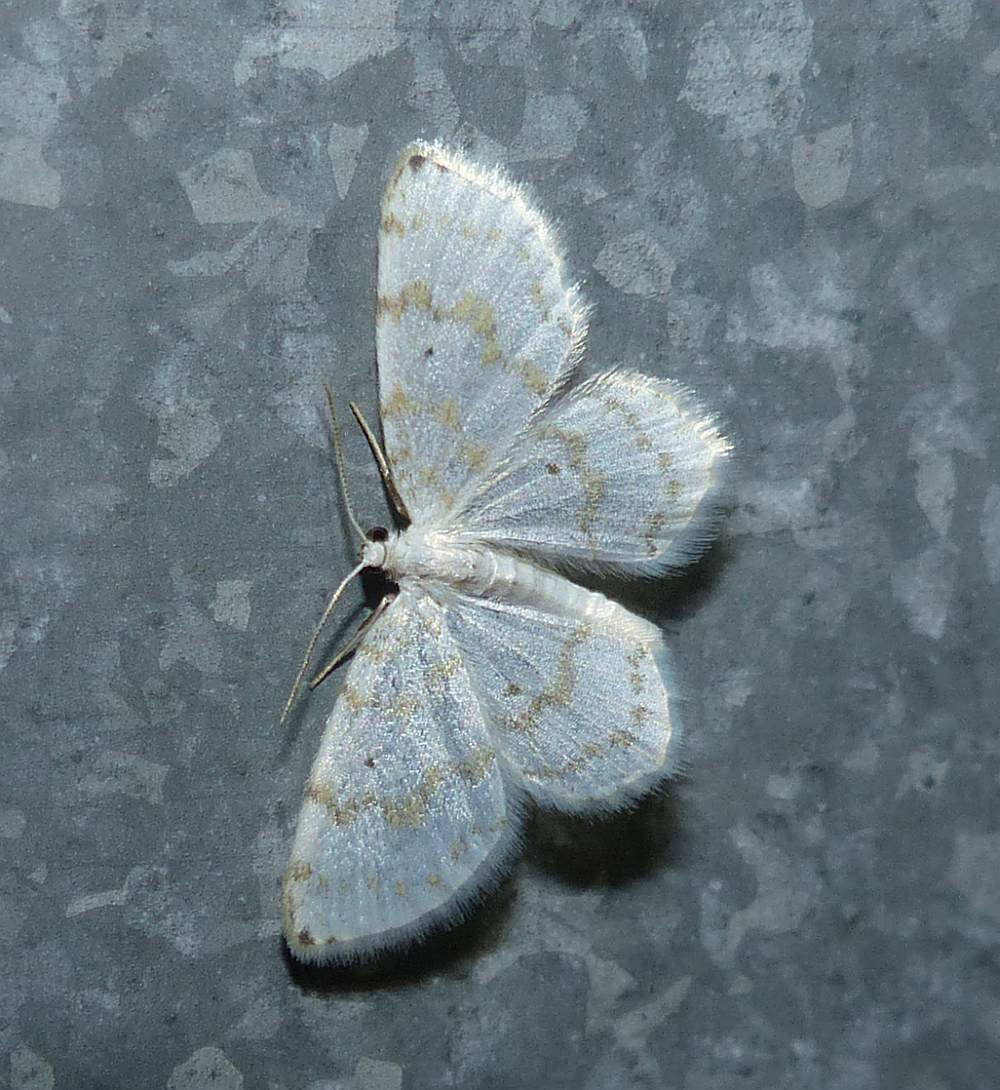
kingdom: Animalia
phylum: Arthropoda
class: Insecta
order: Lepidoptera
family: Geometridae
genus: Hydrelia
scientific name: Hydrelia albifera
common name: Fragile white carpet
